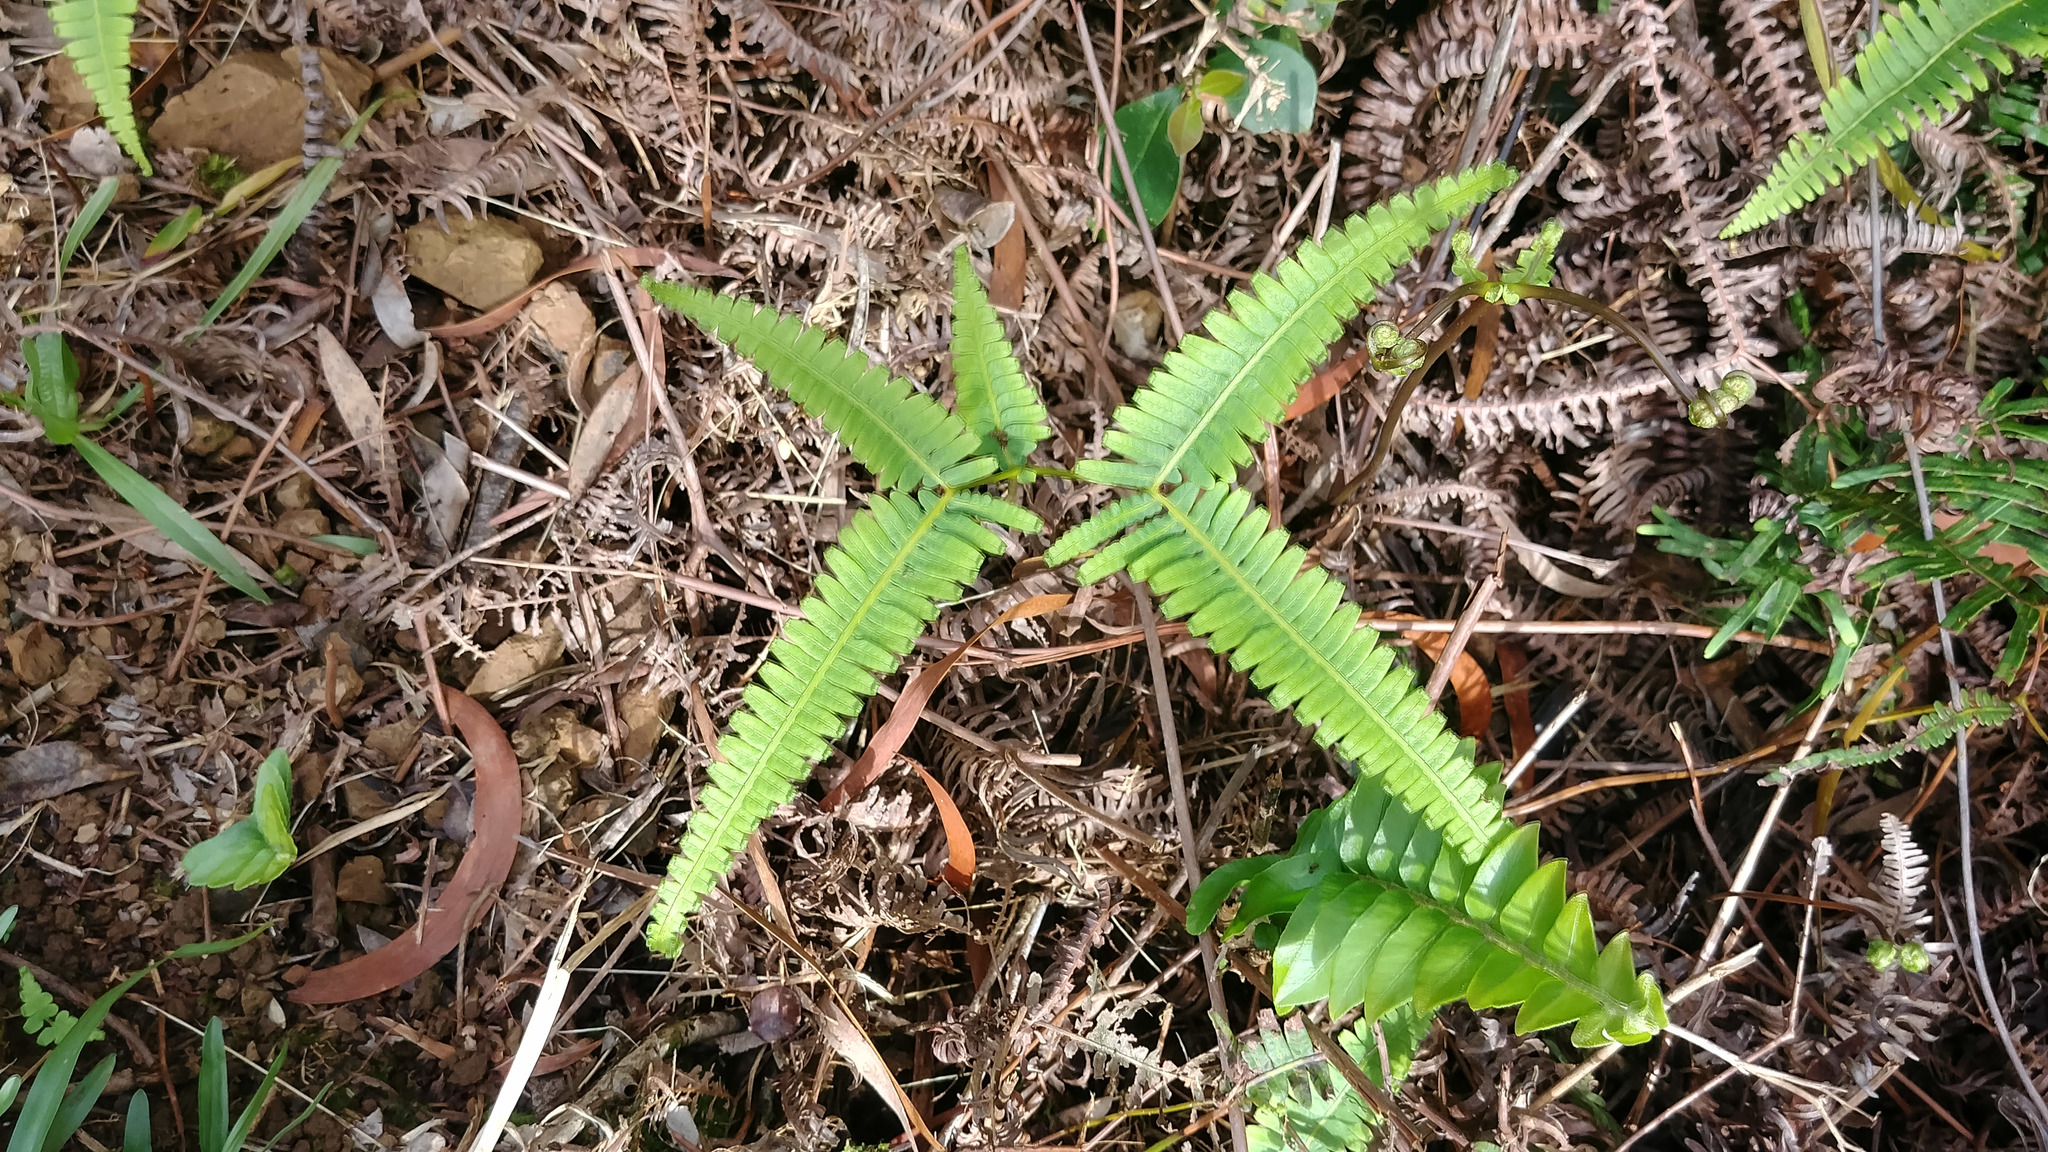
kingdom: Plantae
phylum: Tracheophyta
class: Polypodiopsida
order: Gleicheniales
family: Gleicheniaceae
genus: Dicranopteris
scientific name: Dicranopteris linearis
